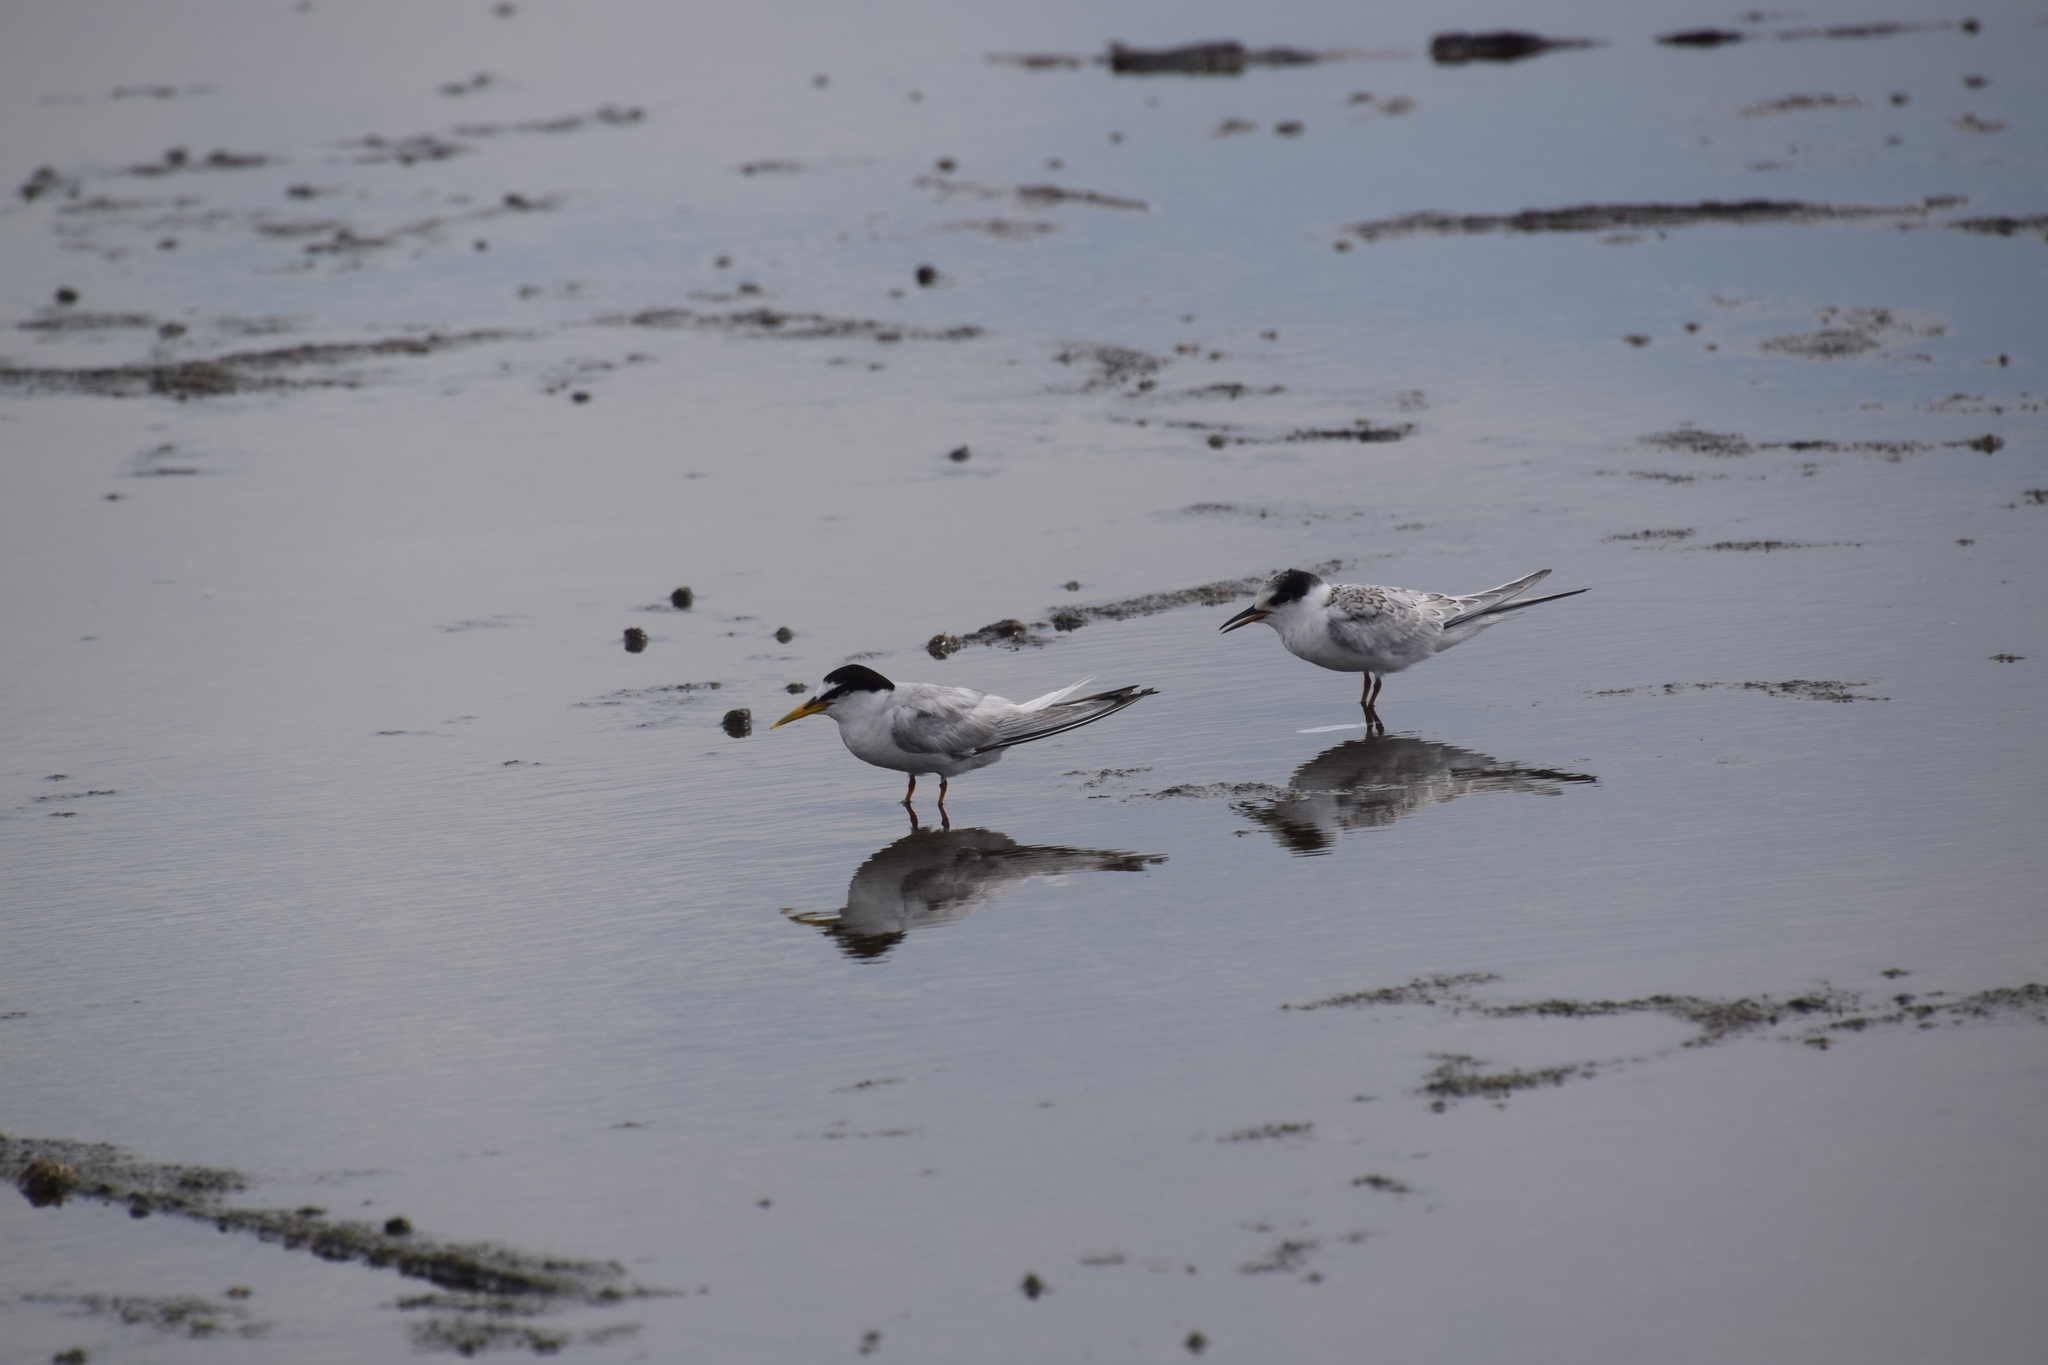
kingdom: Animalia
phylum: Chordata
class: Aves
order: Charadriiformes
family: Laridae
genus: Sternula
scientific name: Sternula albifrons
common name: Little tern
